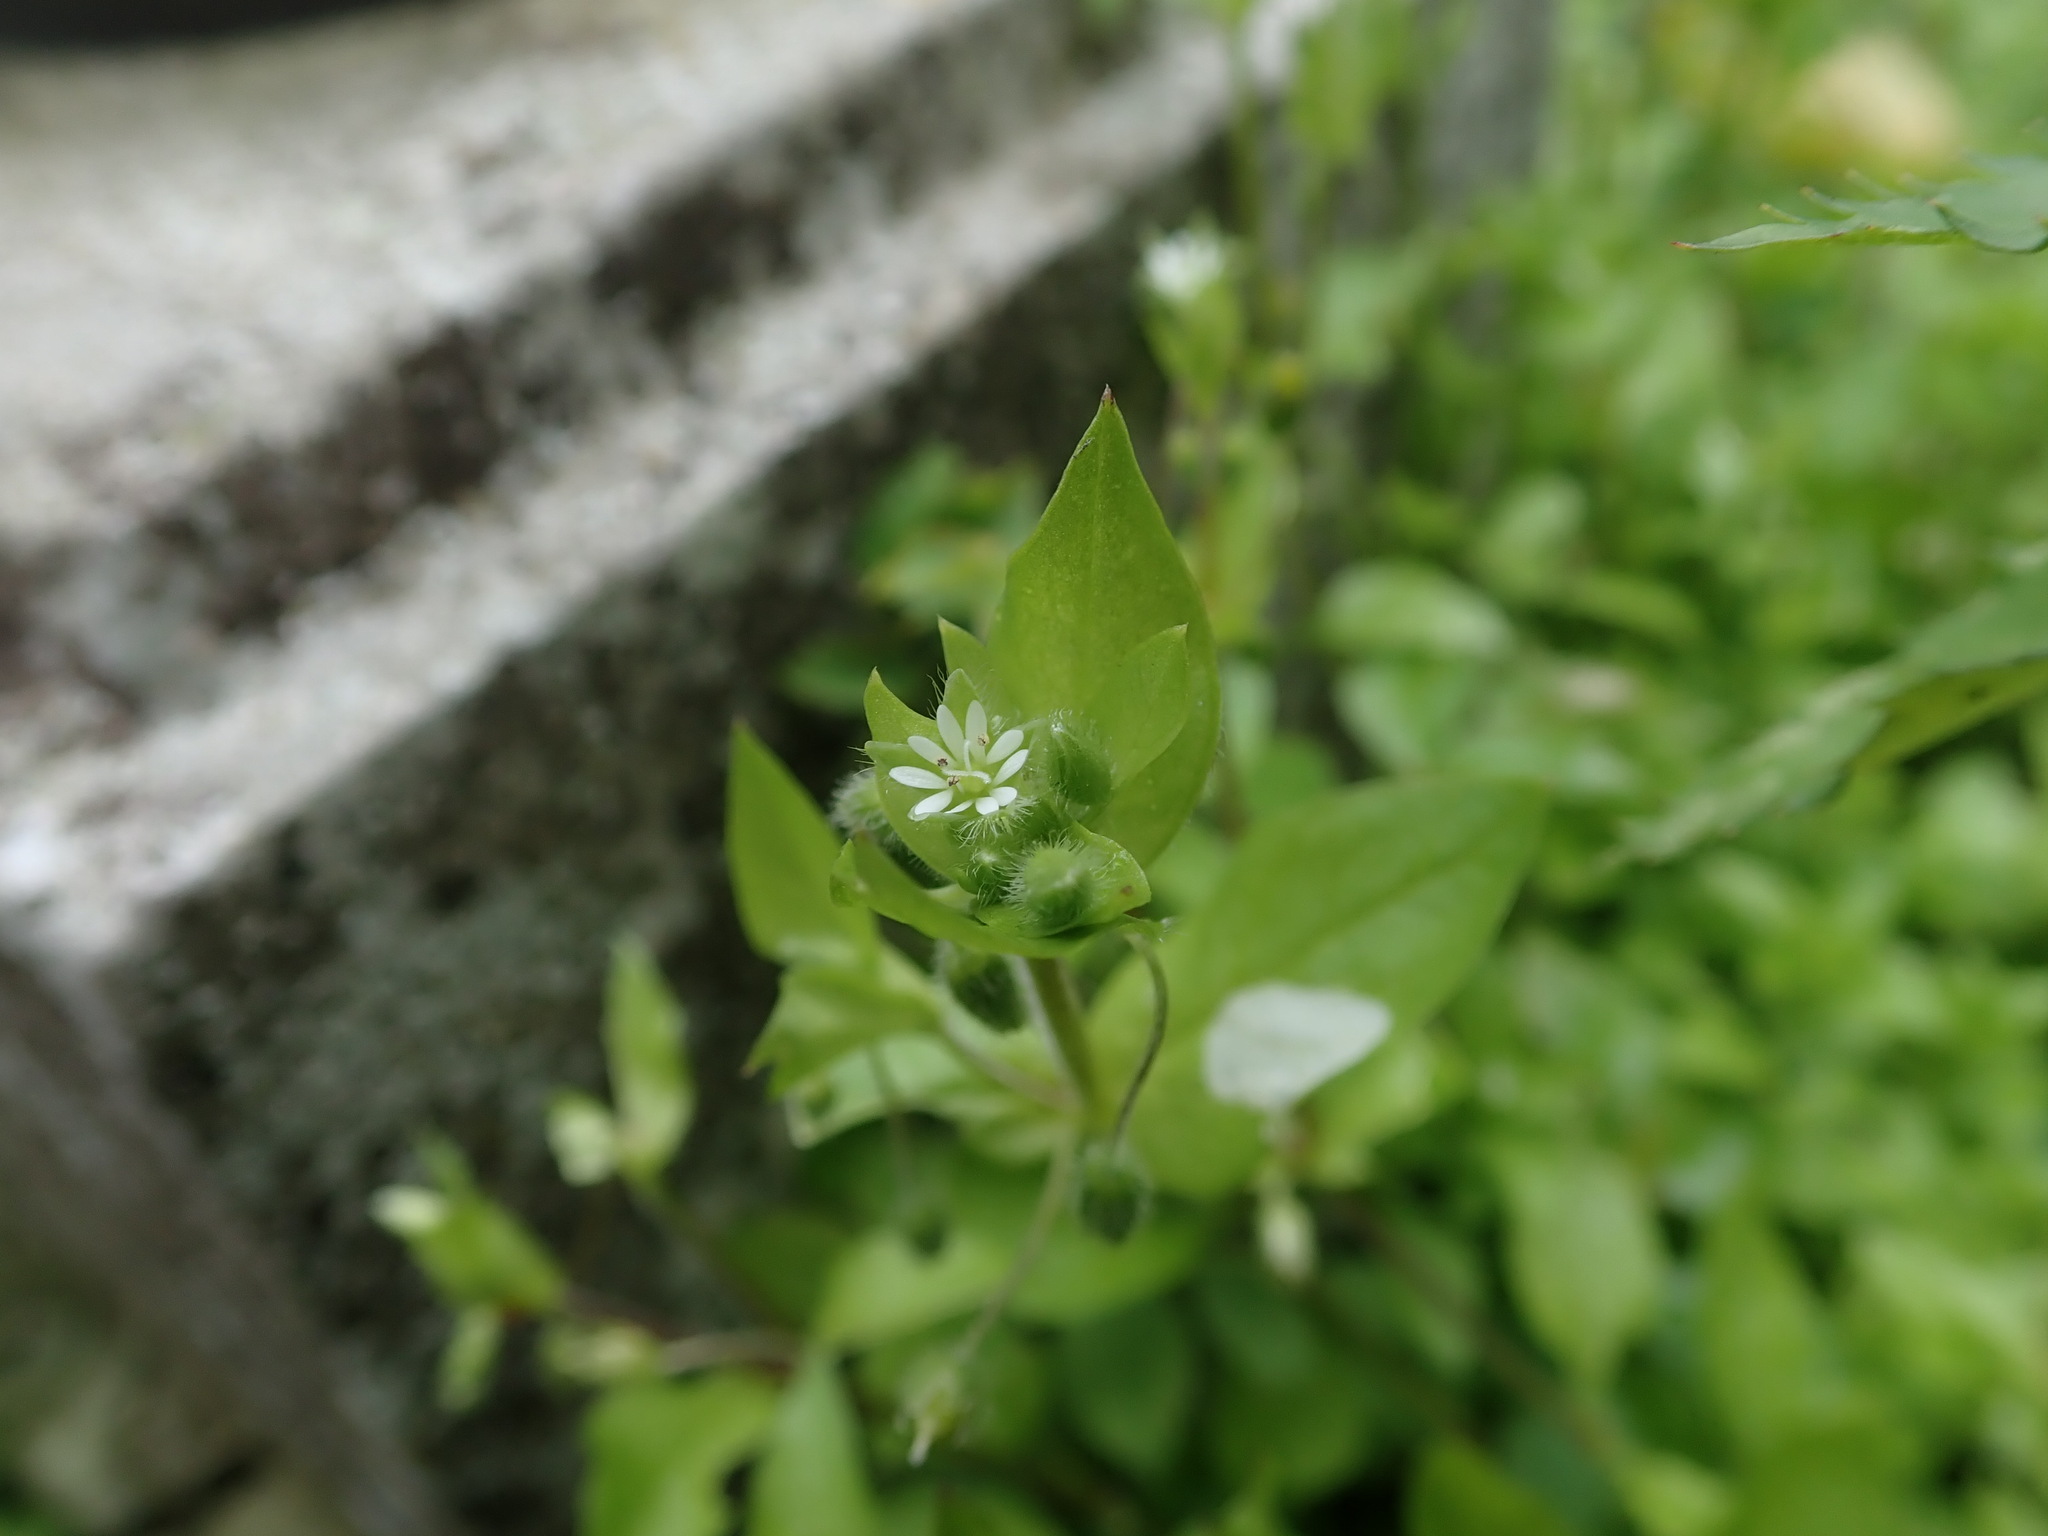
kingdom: Plantae
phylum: Tracheophyta
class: Magnoliopsida
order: Caryophyllales
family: Caryophyllaceae
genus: Stellaria
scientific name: Stellaria media
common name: Common chickweed
